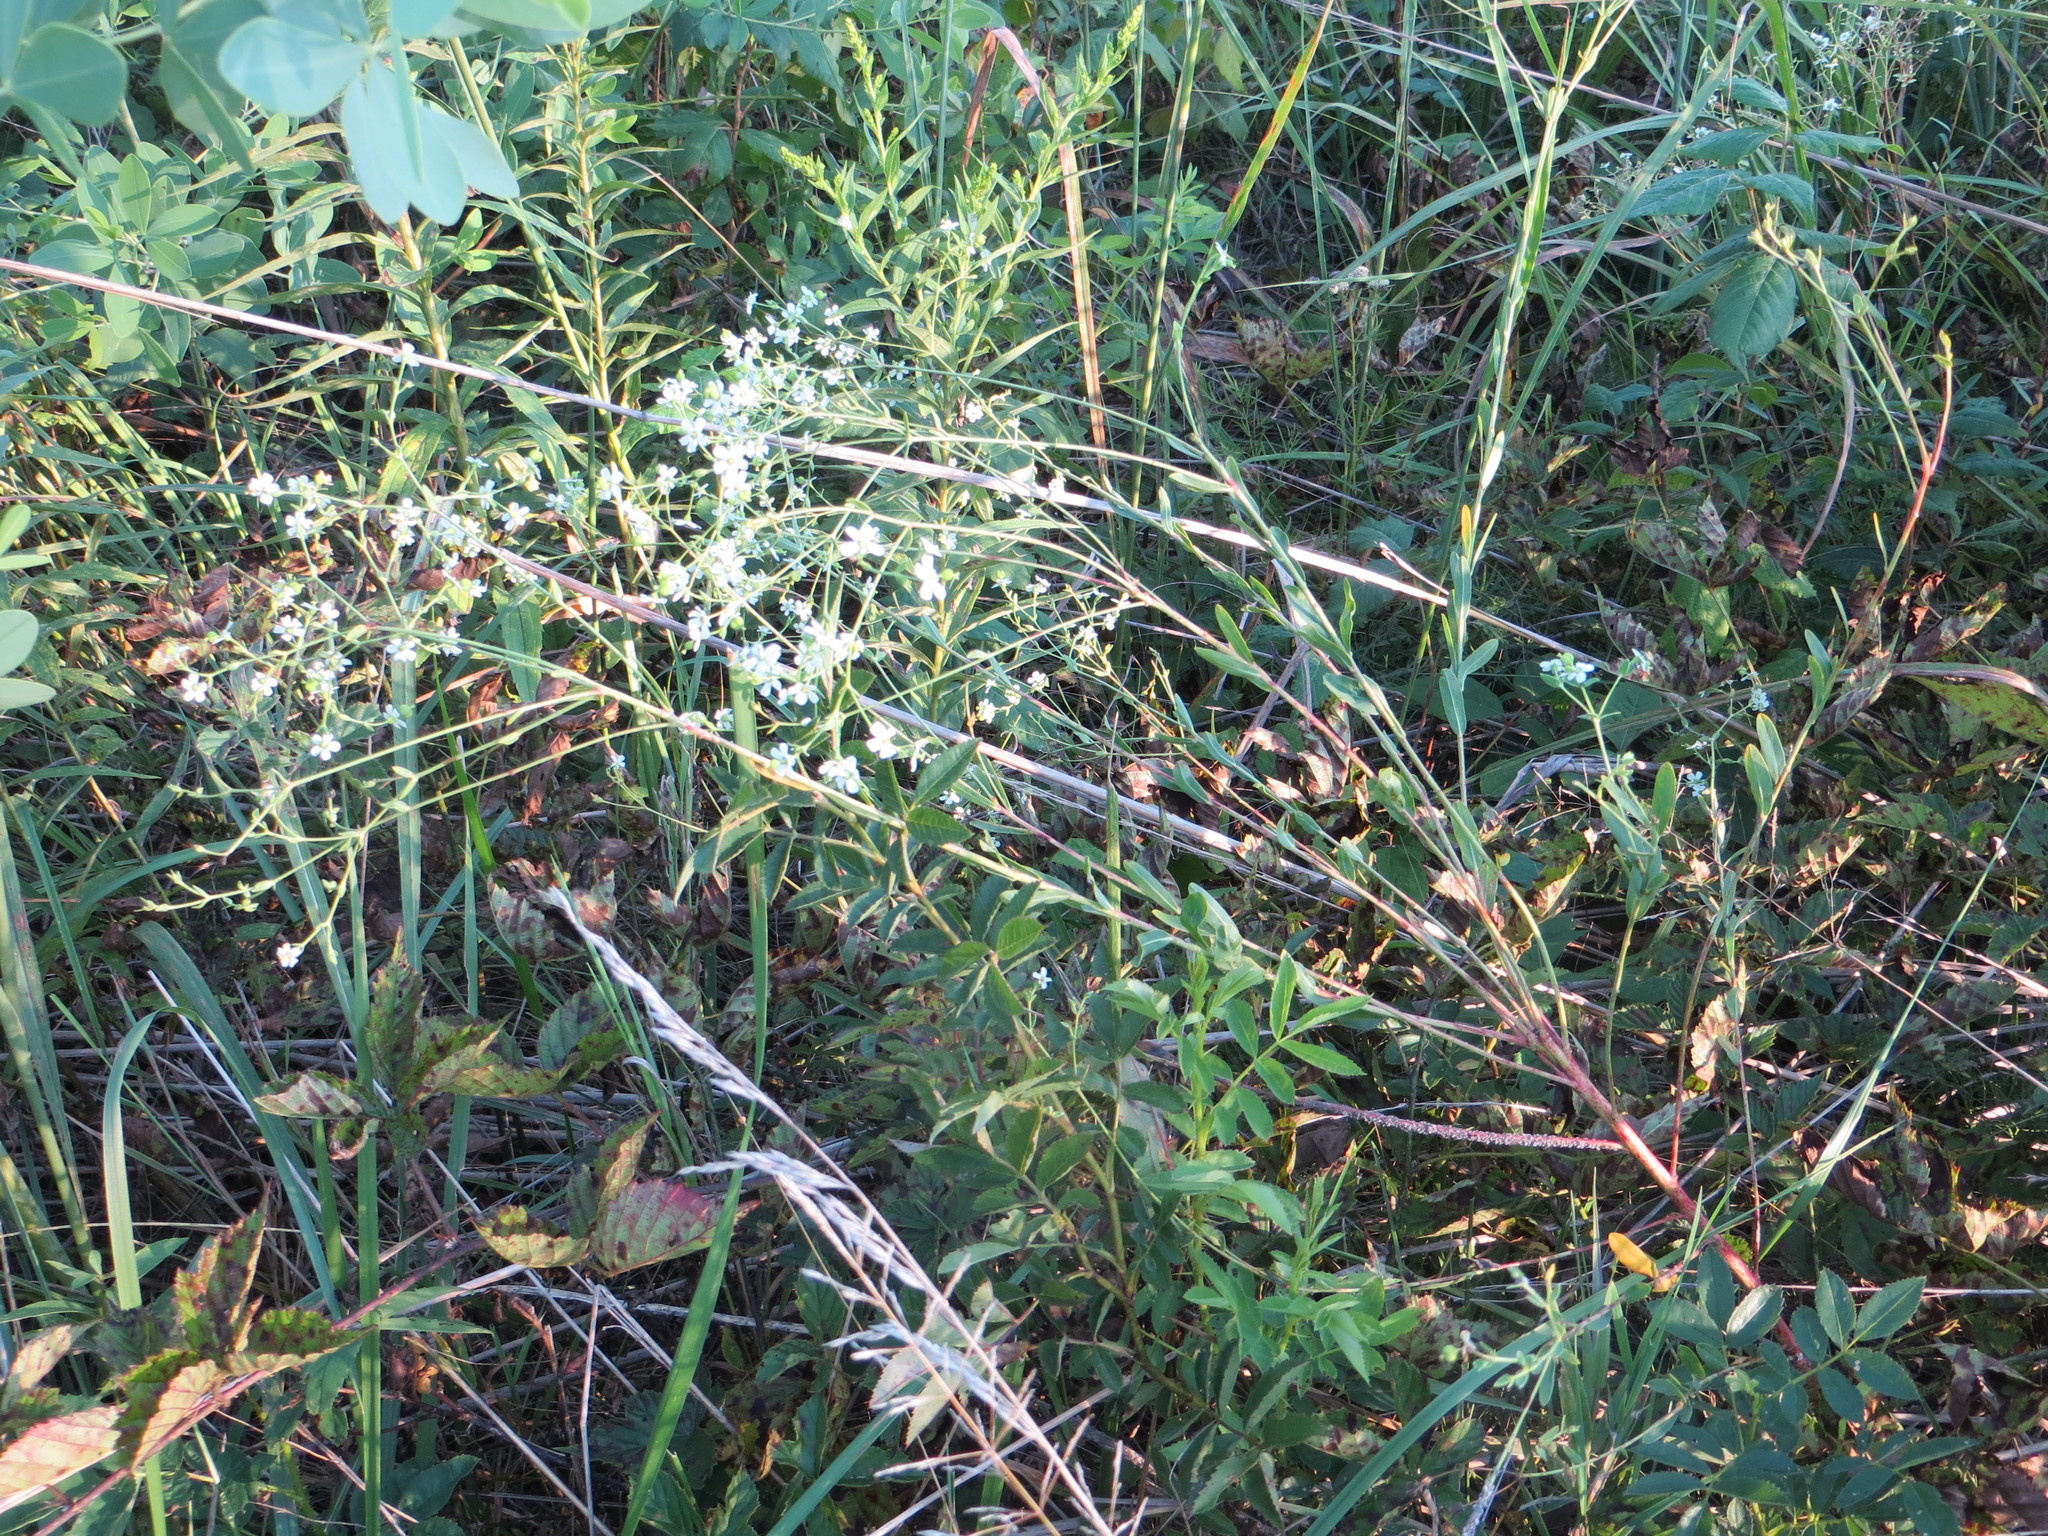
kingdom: Plantae
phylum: Tracheophyta
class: Magnoliopsida
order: Malpighiales
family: Euphorbiaceae
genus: Euphorbia
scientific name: Euphorbia corollata
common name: Flowering spurge
